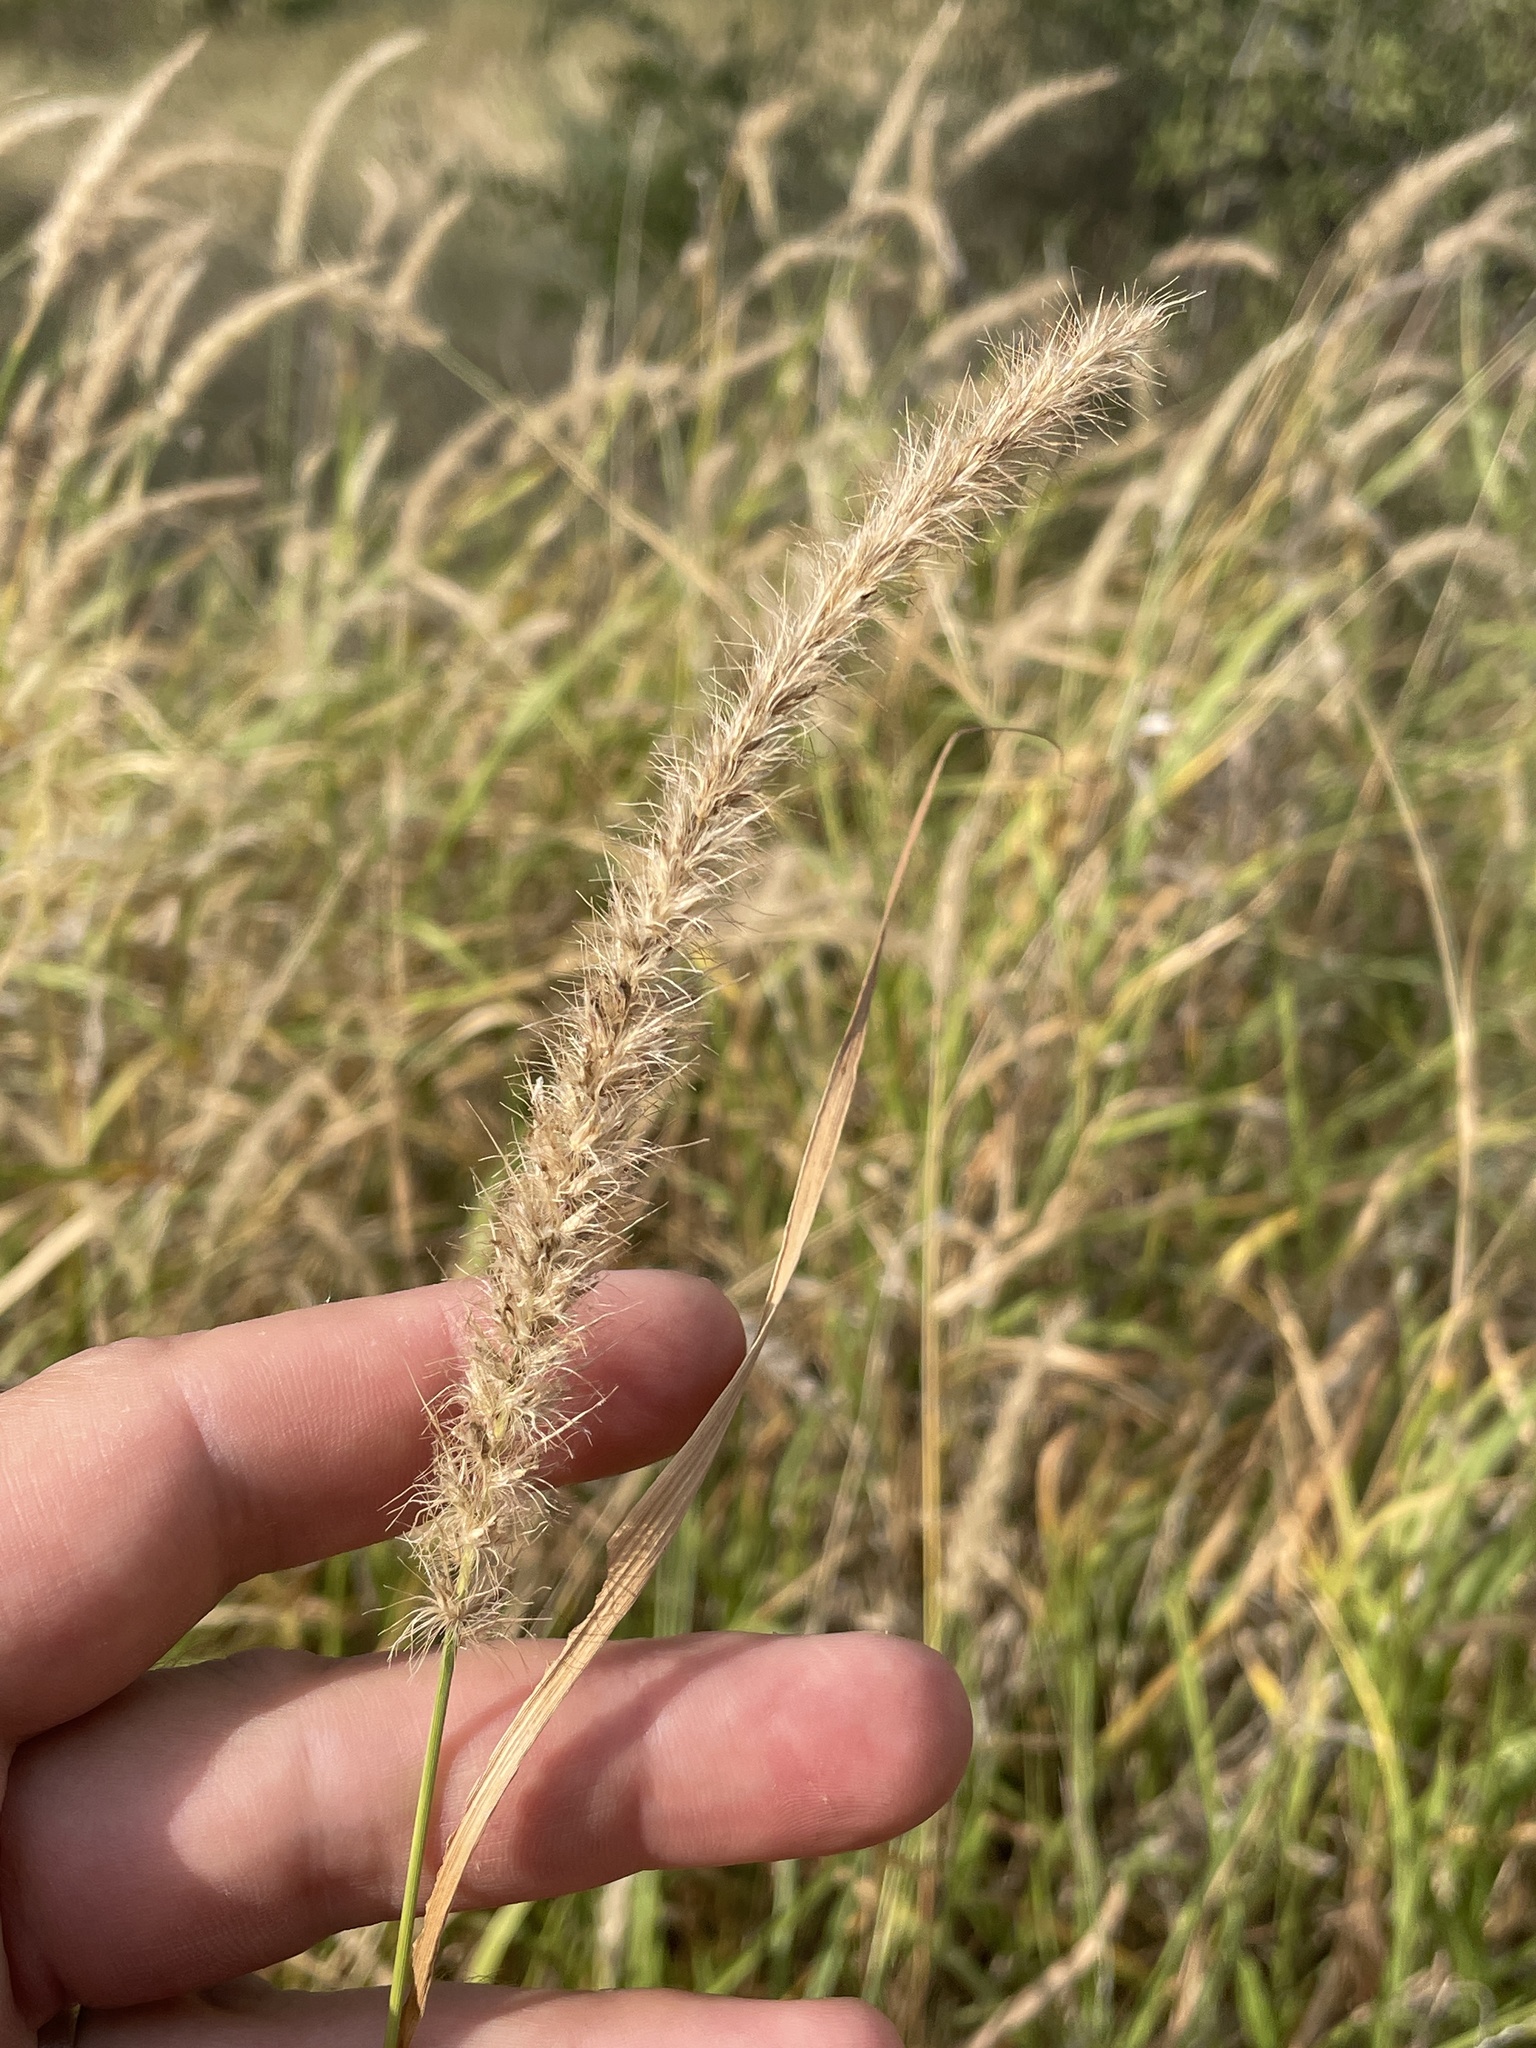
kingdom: Plantae
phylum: Tracheophyta
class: Liliopsida
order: Poales
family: Poaceae
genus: Cenchrus
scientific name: Cenchrus ciliaris
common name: Buffelgrass
